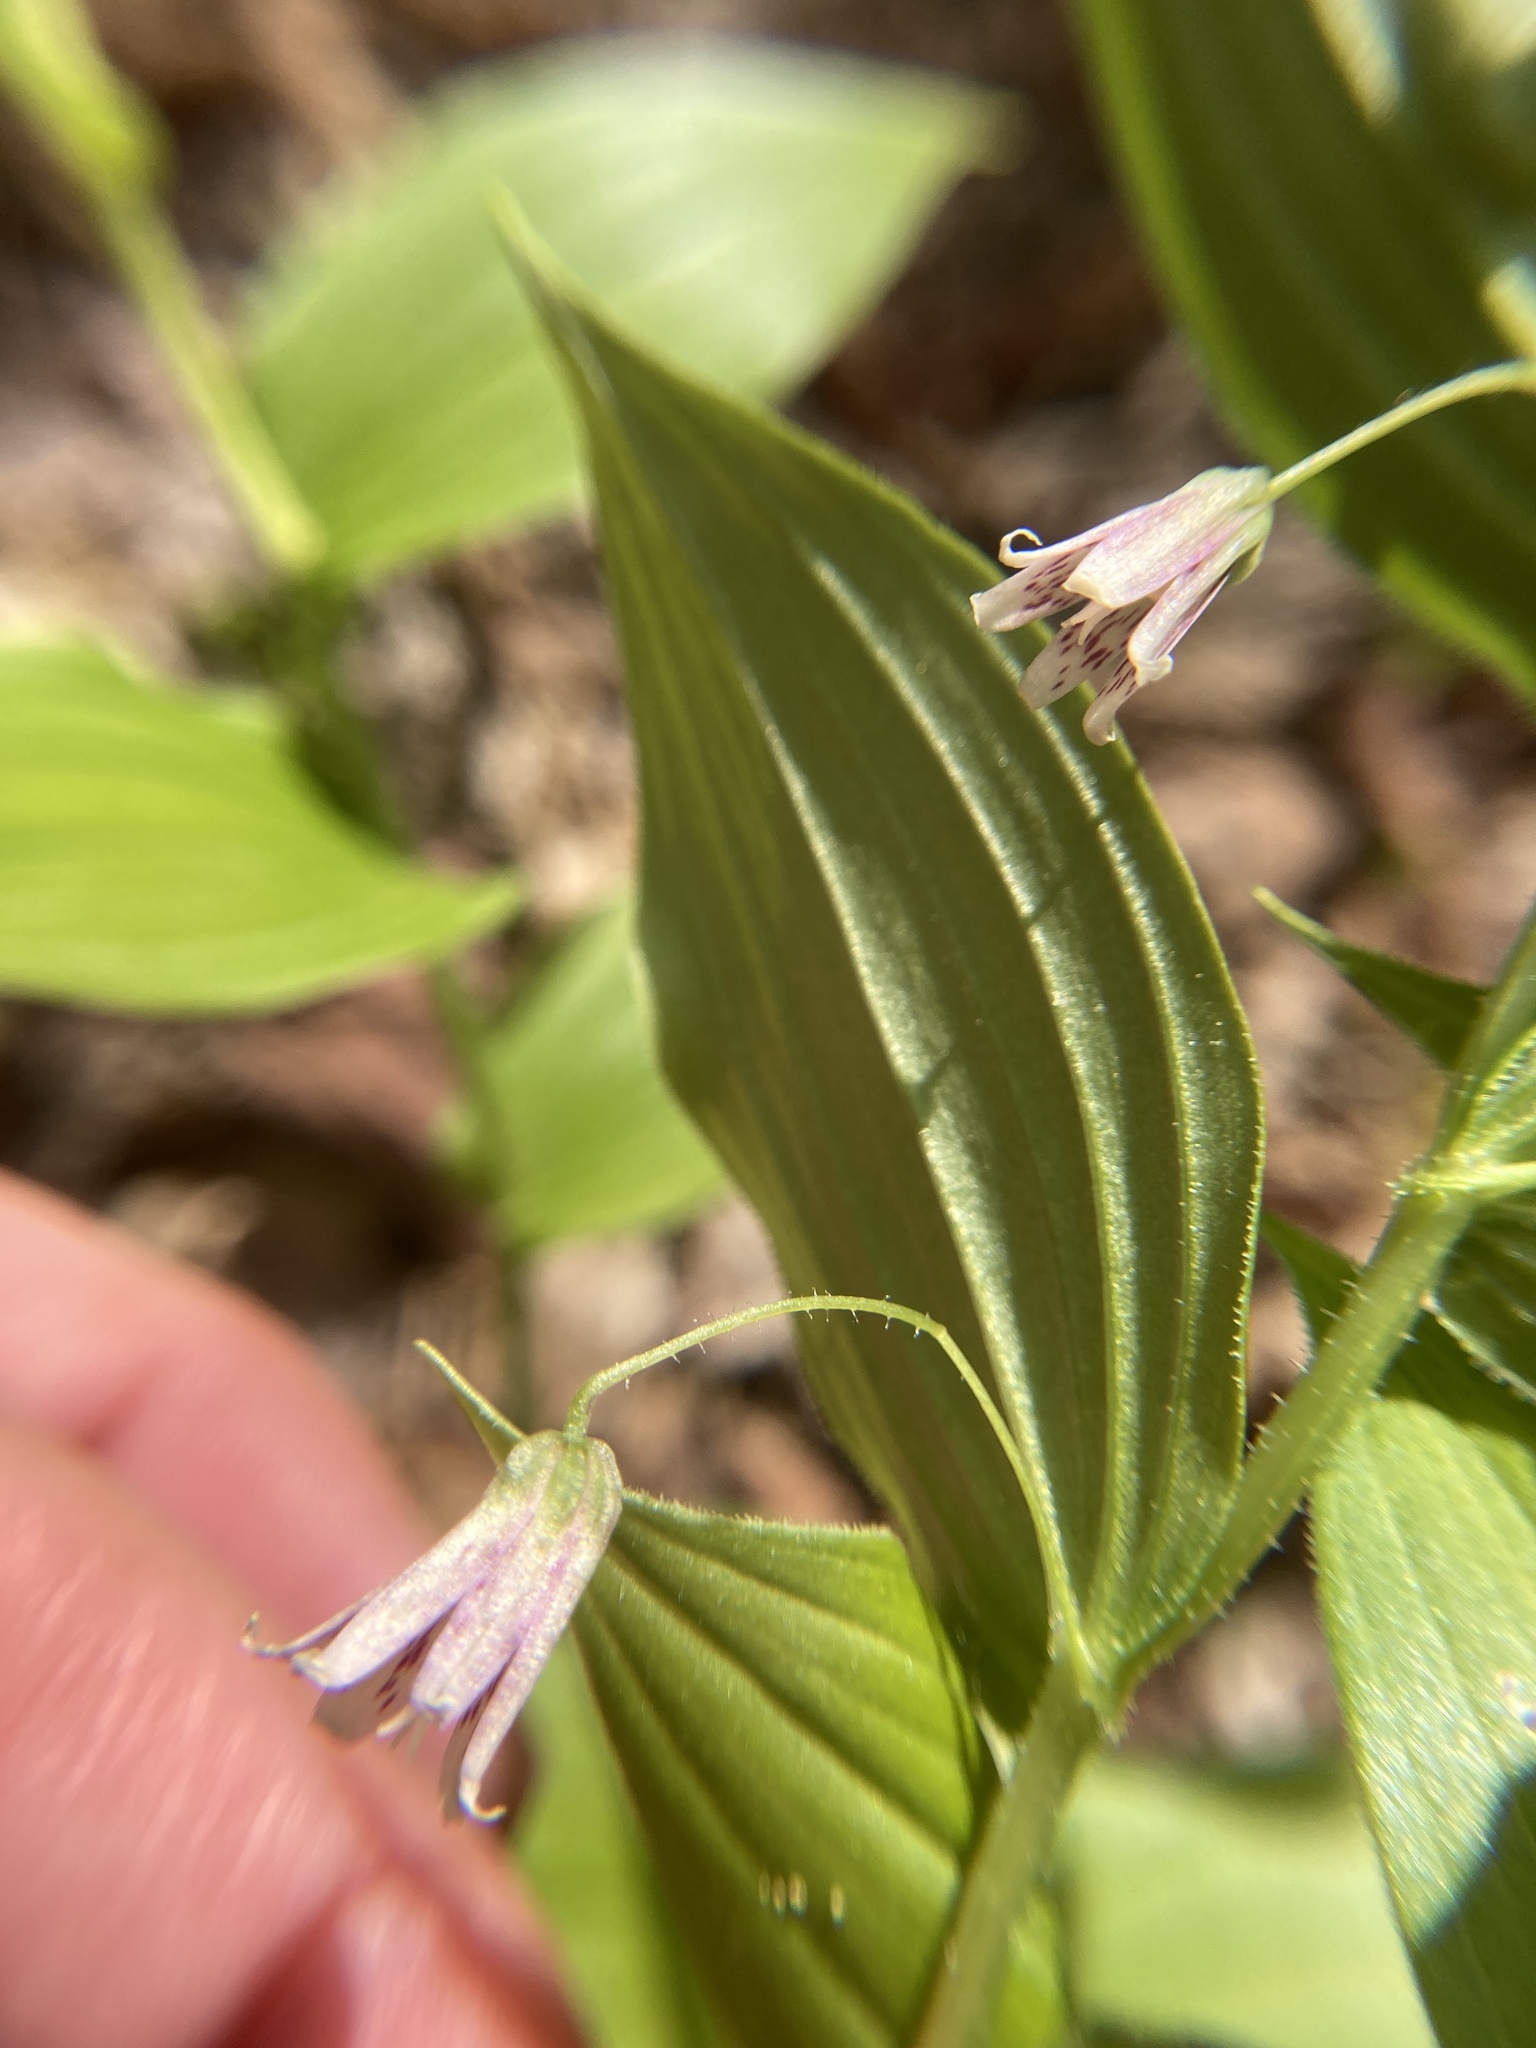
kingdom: Plantae
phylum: Tracheophyta
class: Liliopsida
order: Liliales
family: Liliaceae
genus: Streptopus
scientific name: Streptopus lanceolatus
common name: Rose mandarin
